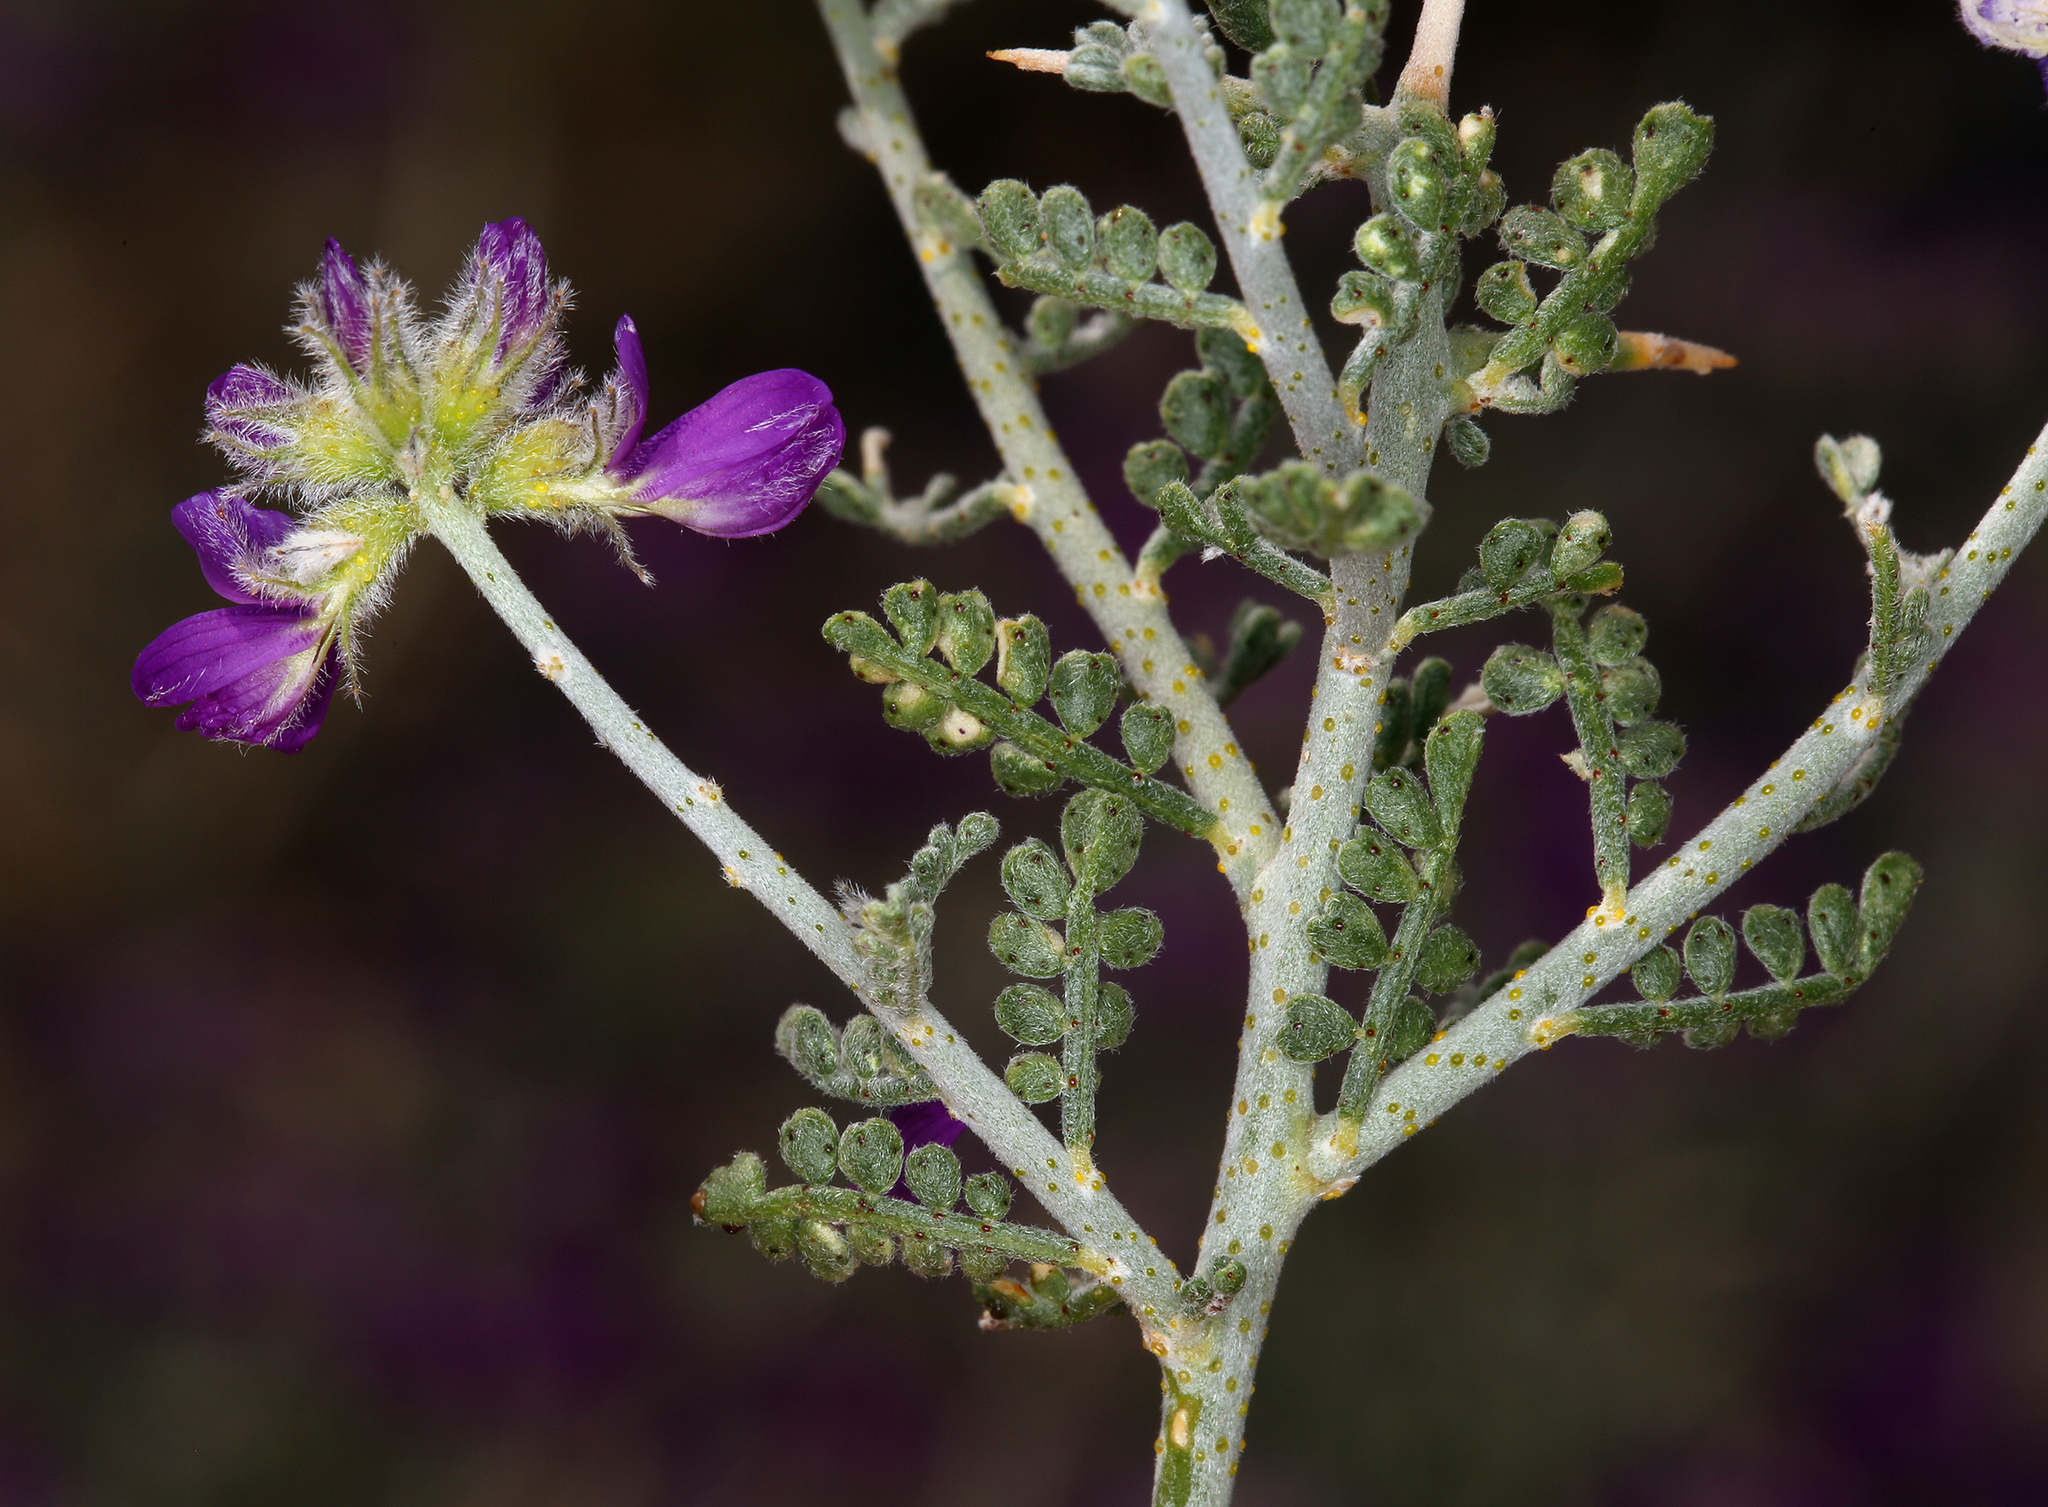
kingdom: Plantae
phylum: Tracheophyta
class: Magnoliopsida
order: Fabales
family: Fabaceae
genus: Psorothamnus
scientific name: Psorothamnus polydenius
